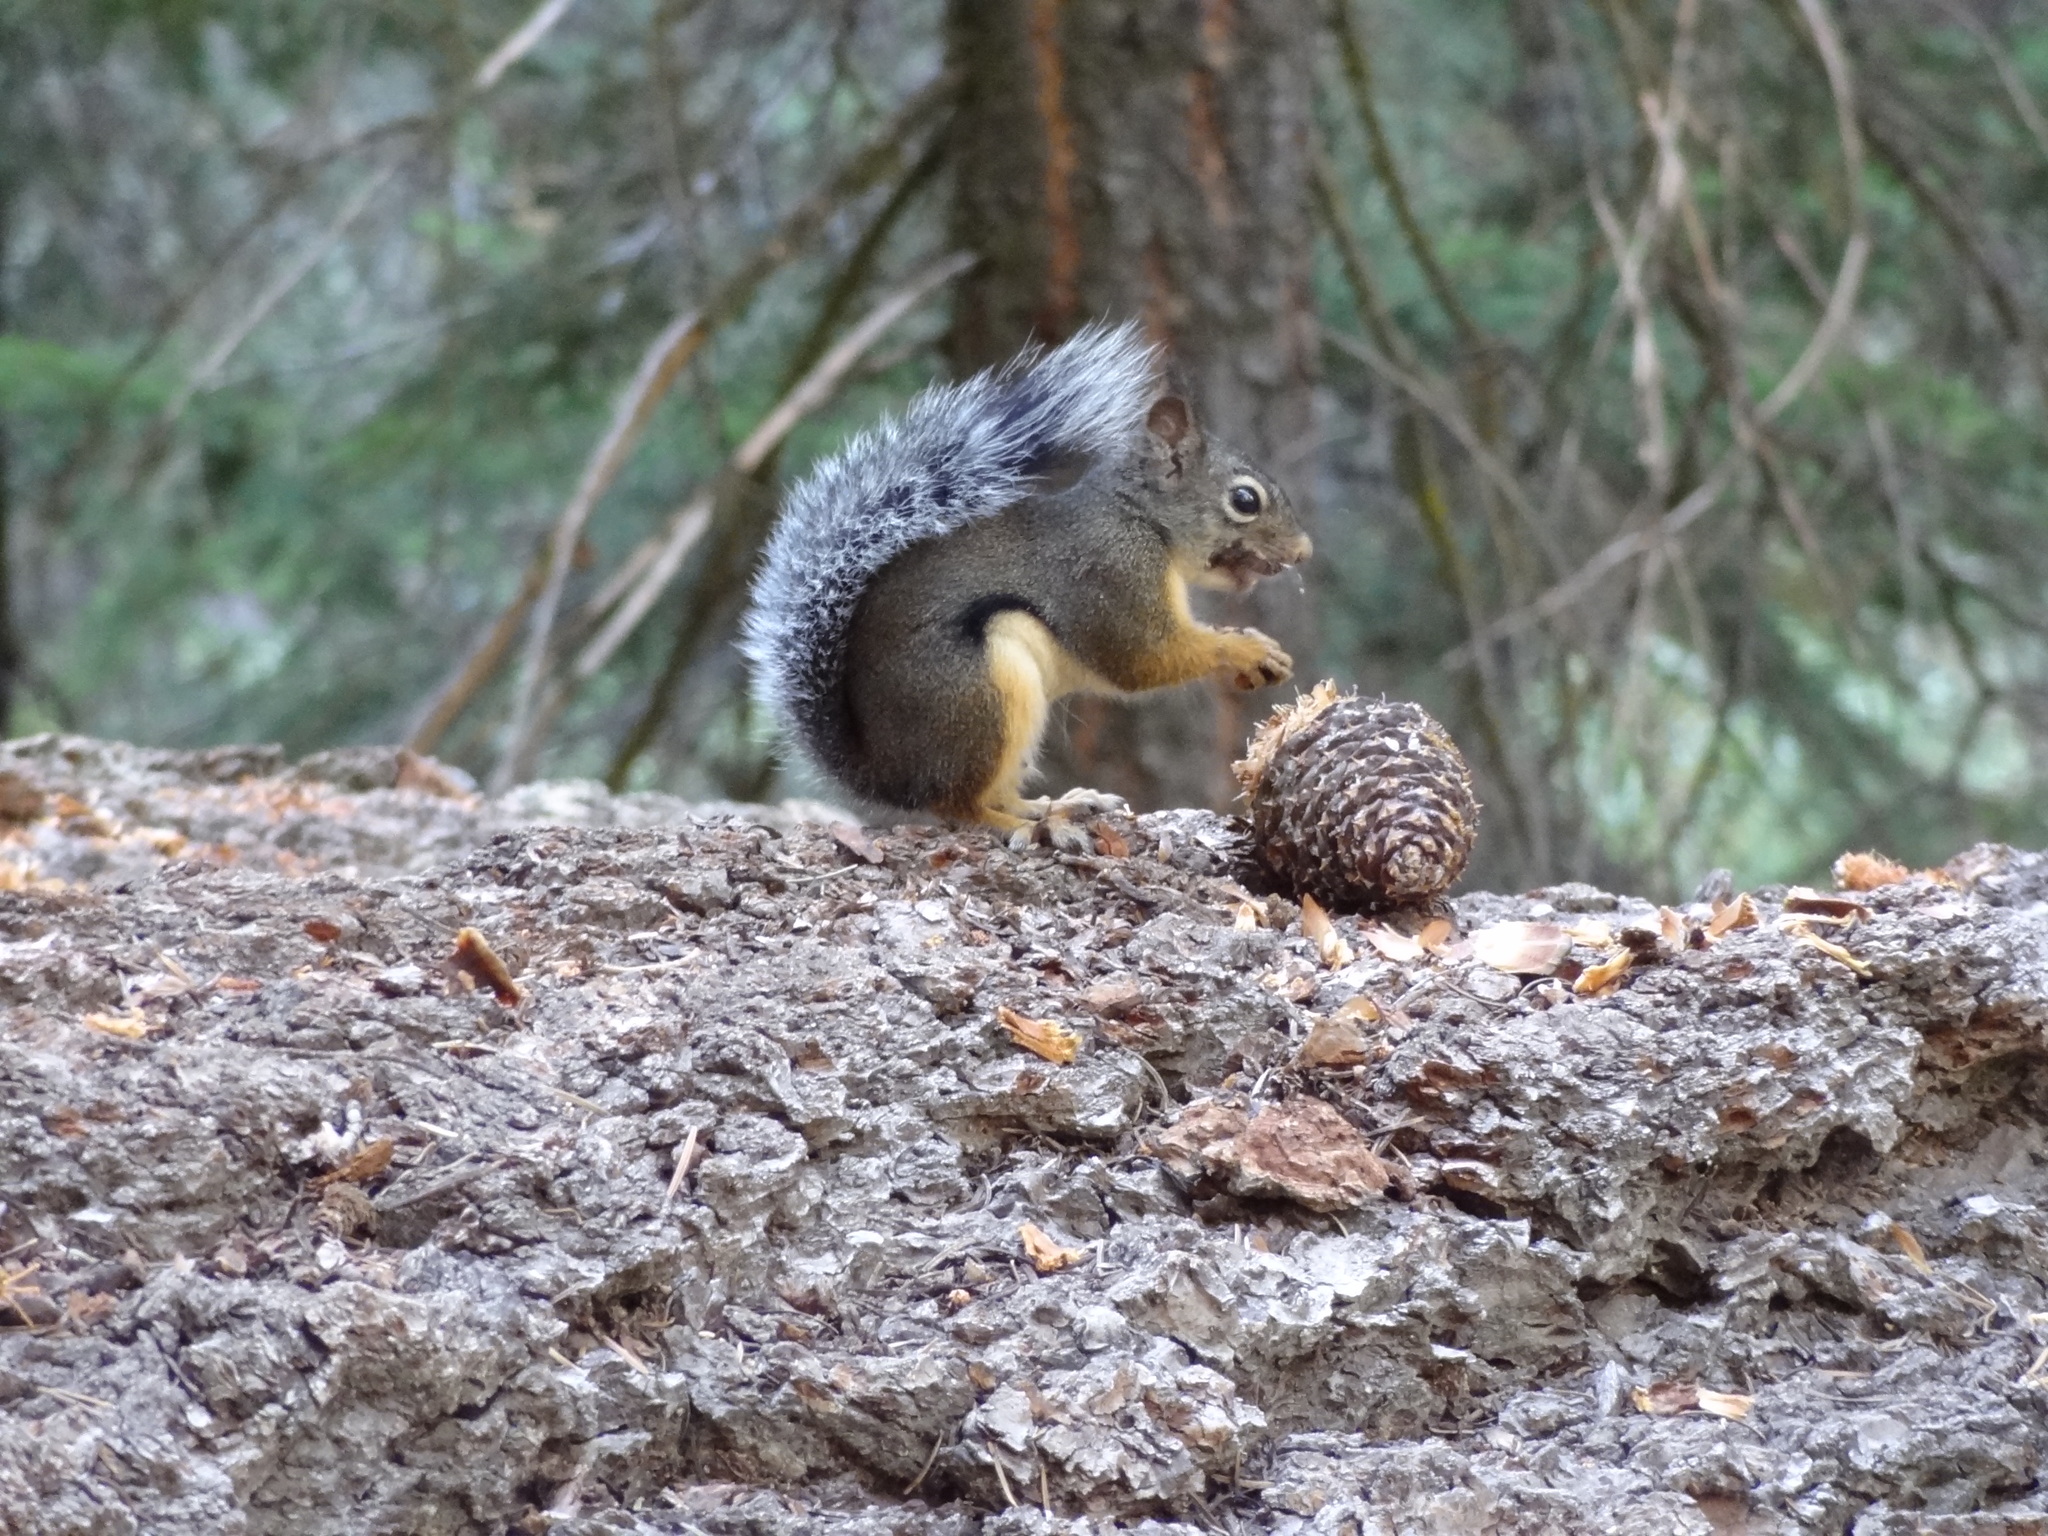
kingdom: Animalia
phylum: Chordata
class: Mammalia
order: Rodentia
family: Sciuridae
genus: Tamiasciurus
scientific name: Tamiasciurus douglasii
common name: Douglas's squirrel
